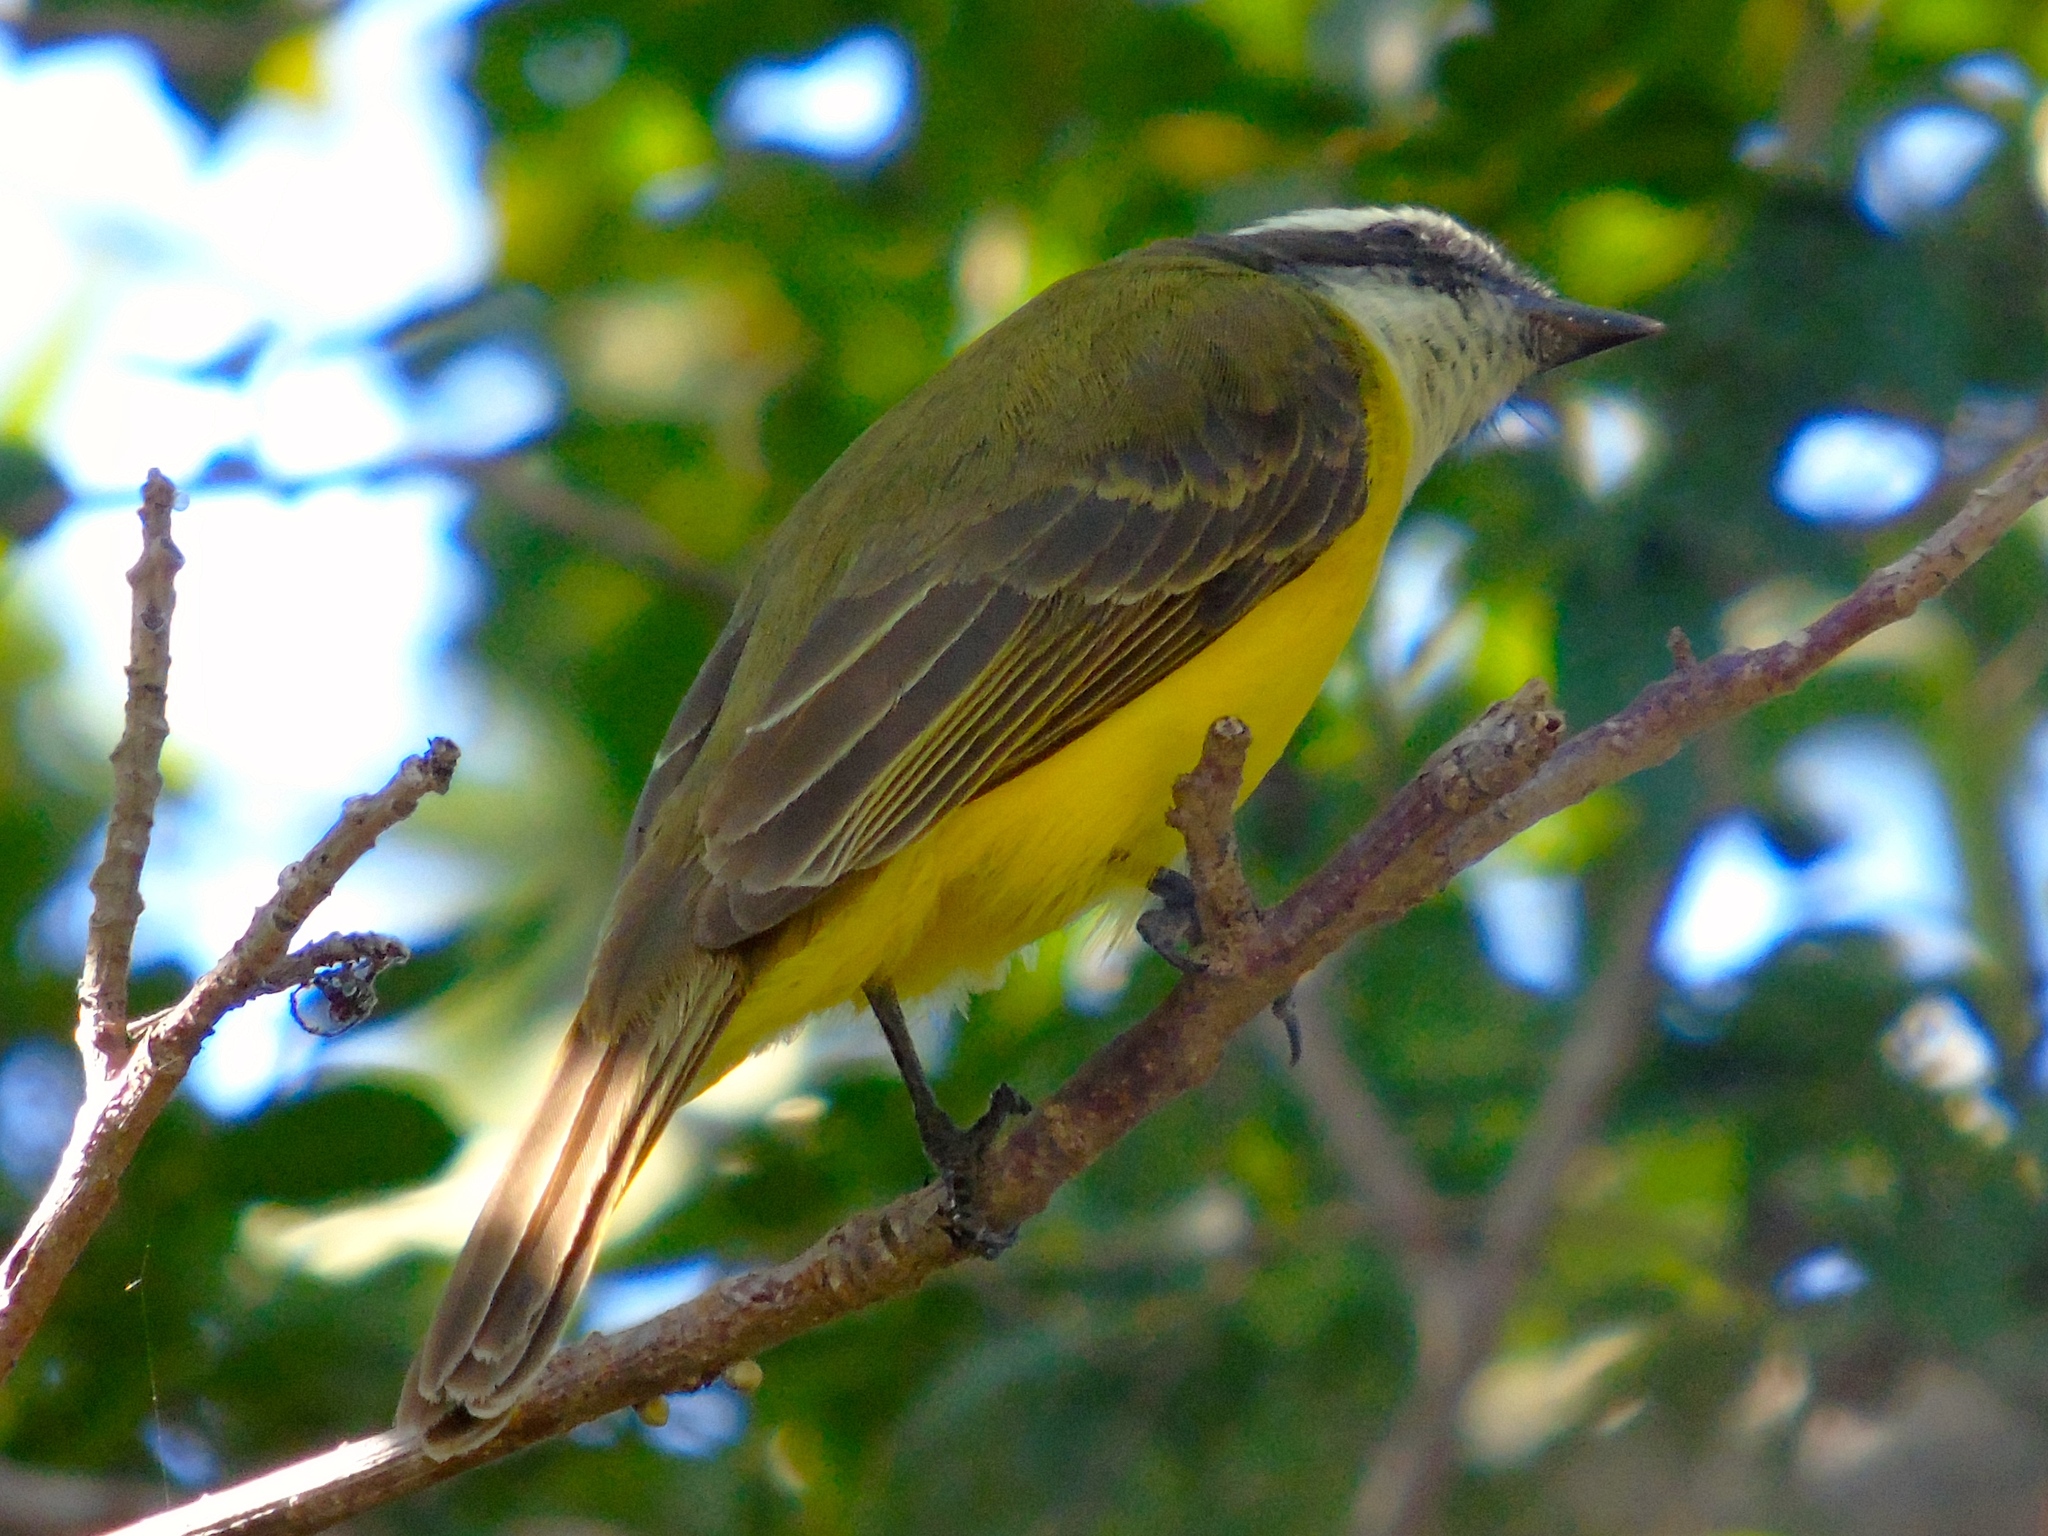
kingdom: Animalia
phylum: Chordata
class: Aves
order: Passeriformes
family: Tyrannidae
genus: Myiozetetes
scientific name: Myiozetetes similis
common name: Social flycatcher
